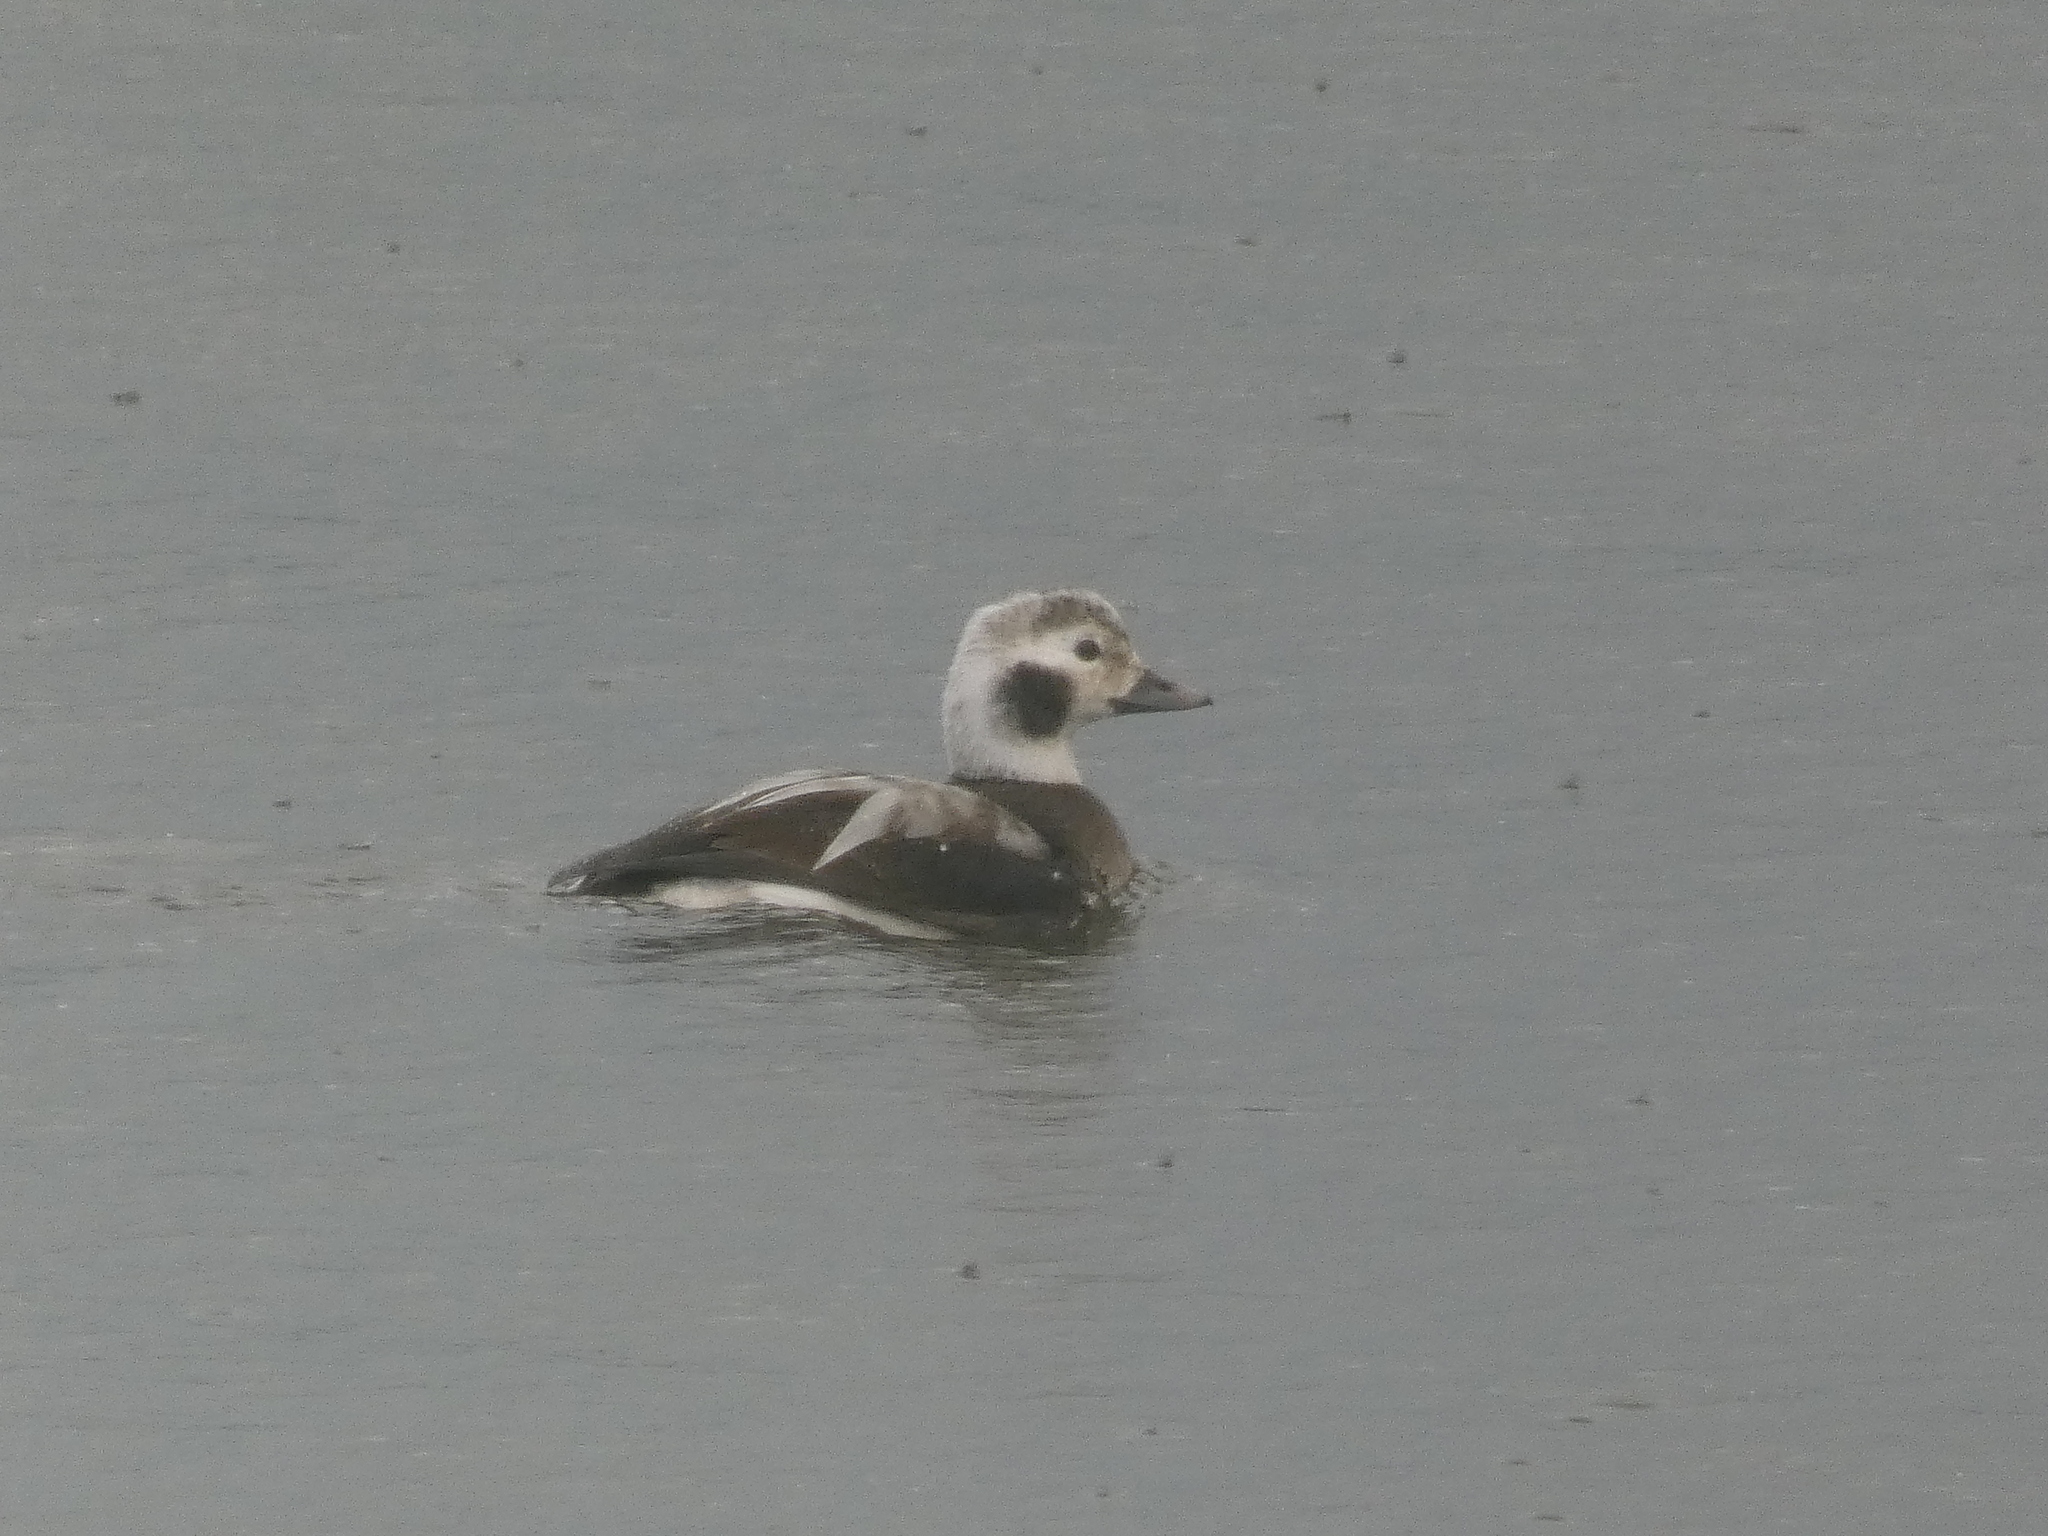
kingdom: Animalia
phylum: Chordata
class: Aves
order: Anseriformes
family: Anatidae
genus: Clangula
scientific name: Clangula hyemalis
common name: Long-tailed duck
